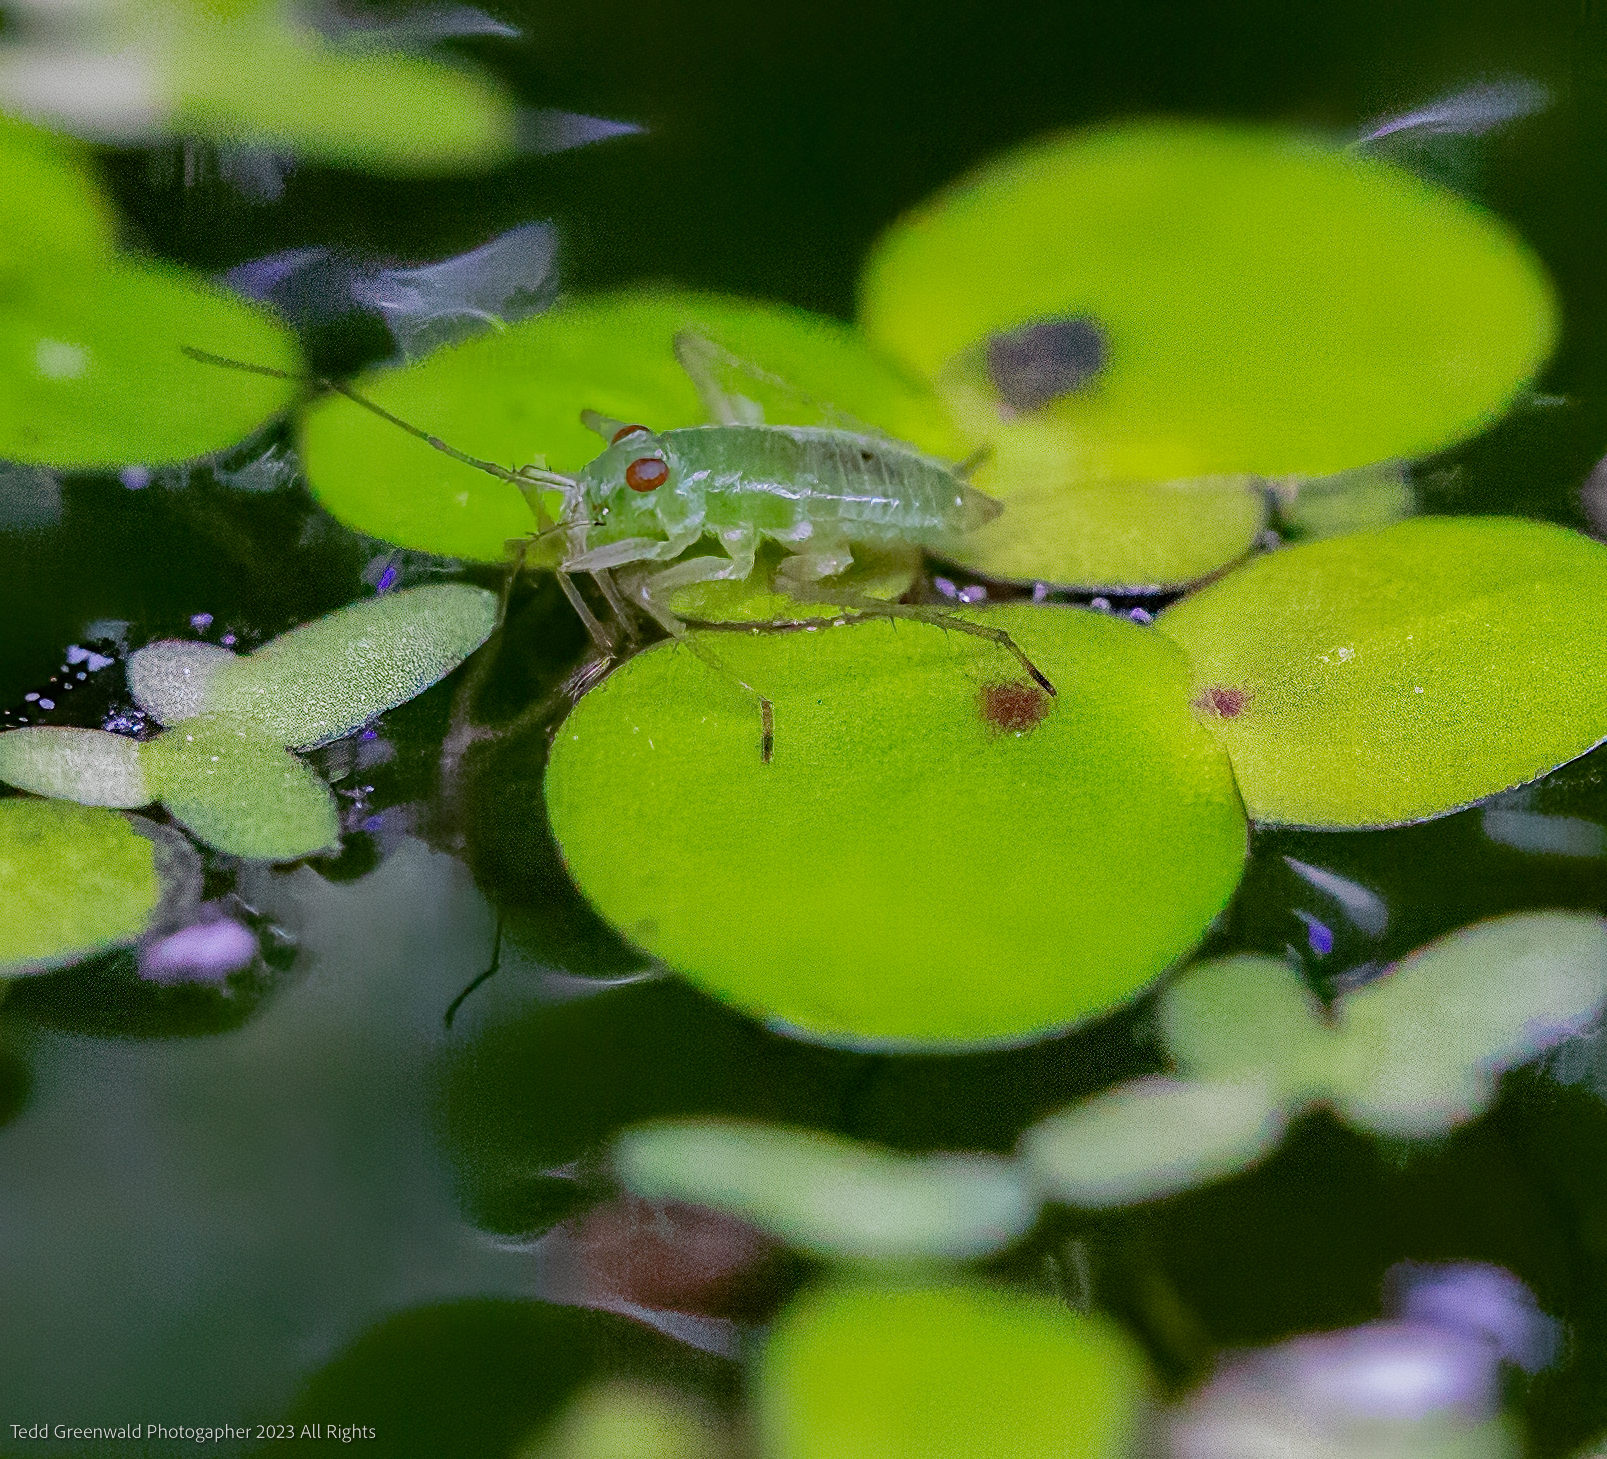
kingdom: Animalia
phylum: Arthropoda
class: Insecta
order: Hemiptera
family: Mesoveliidae
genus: Mesovelia
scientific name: Mesovelia
